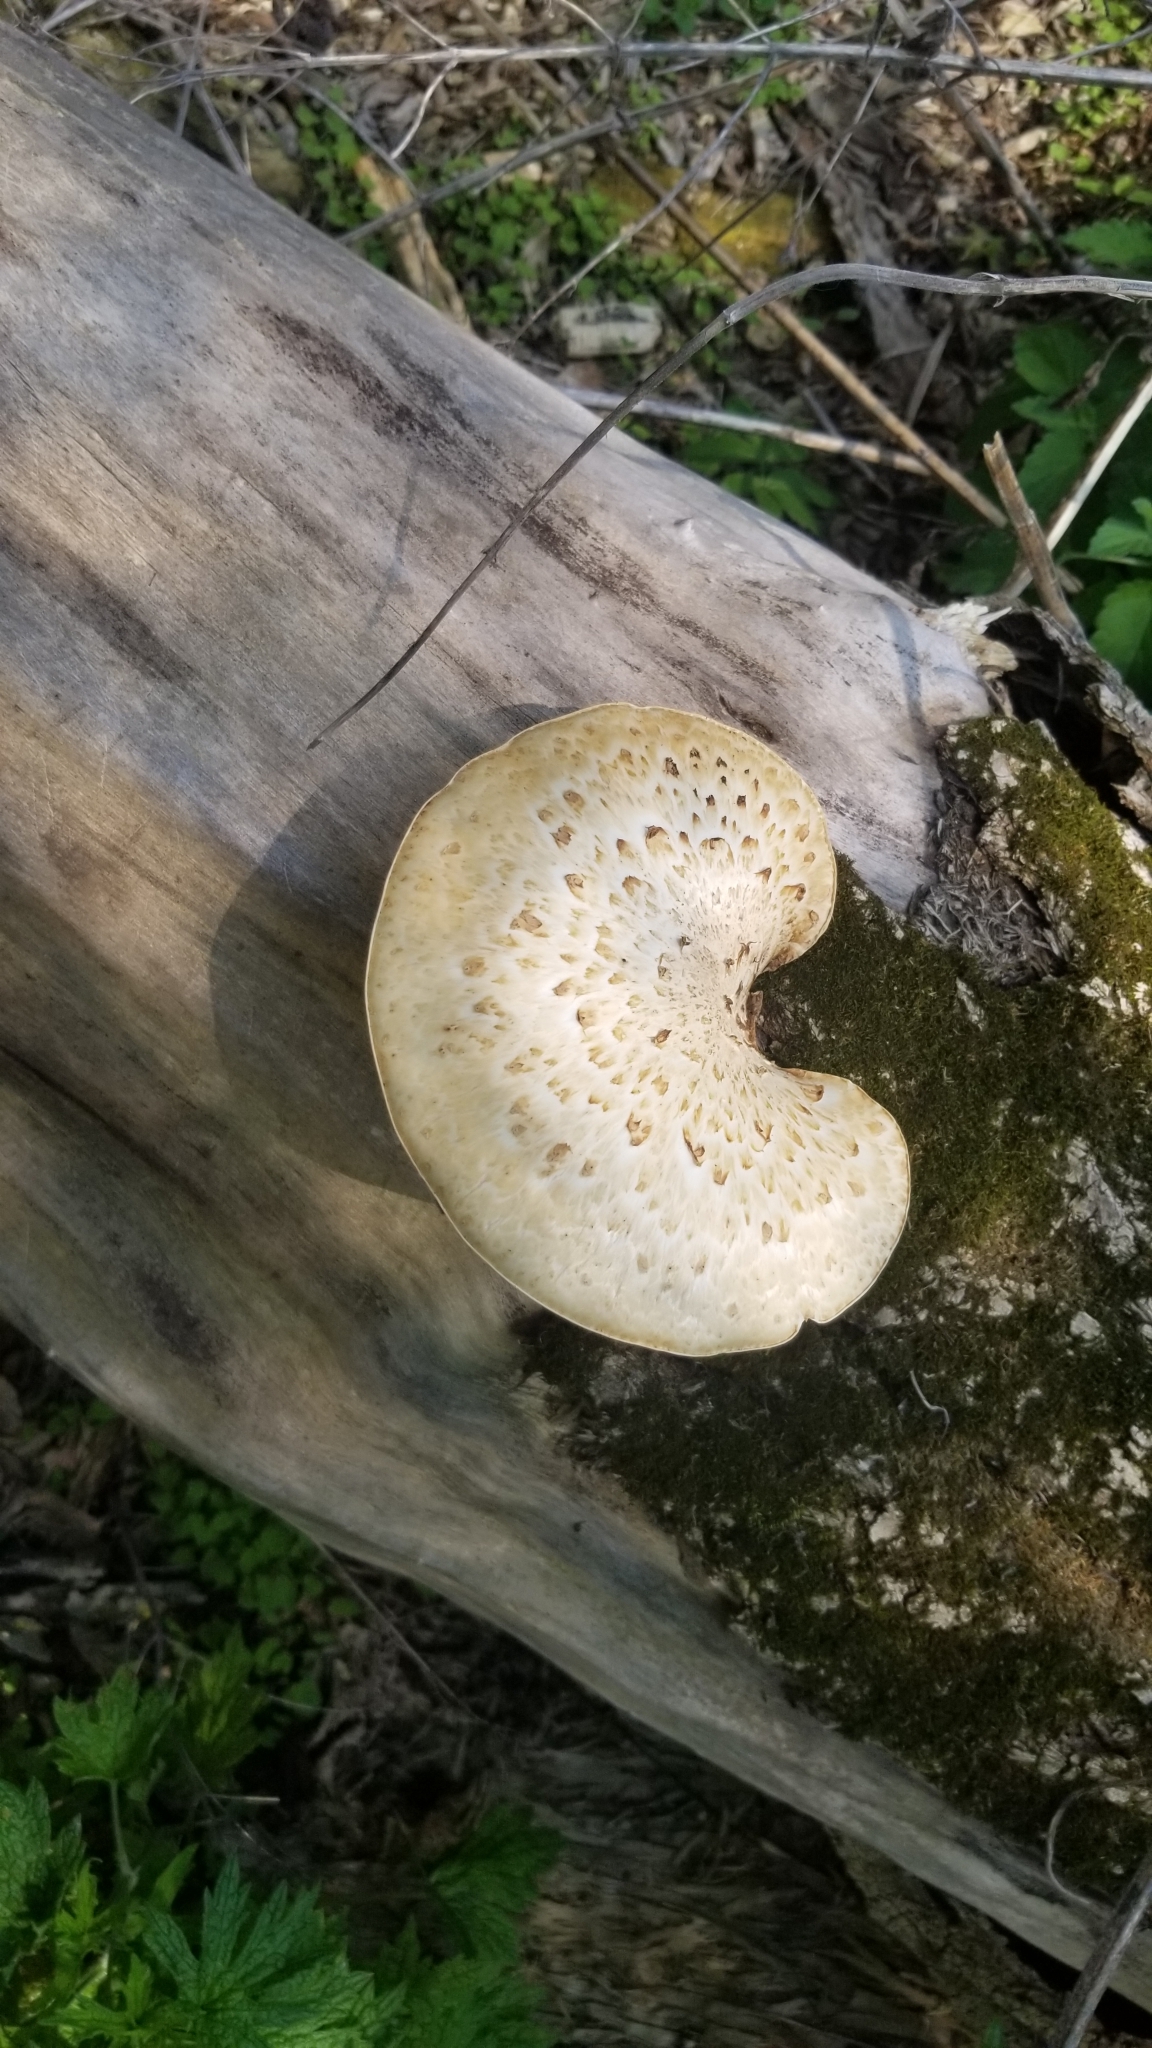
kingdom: Fungi
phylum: Basidiomycota
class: Agaricomycetes
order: Polyporales
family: Polyporaceae
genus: Cerioporus
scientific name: Cerioporus squamosus
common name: Dryad's saddle
